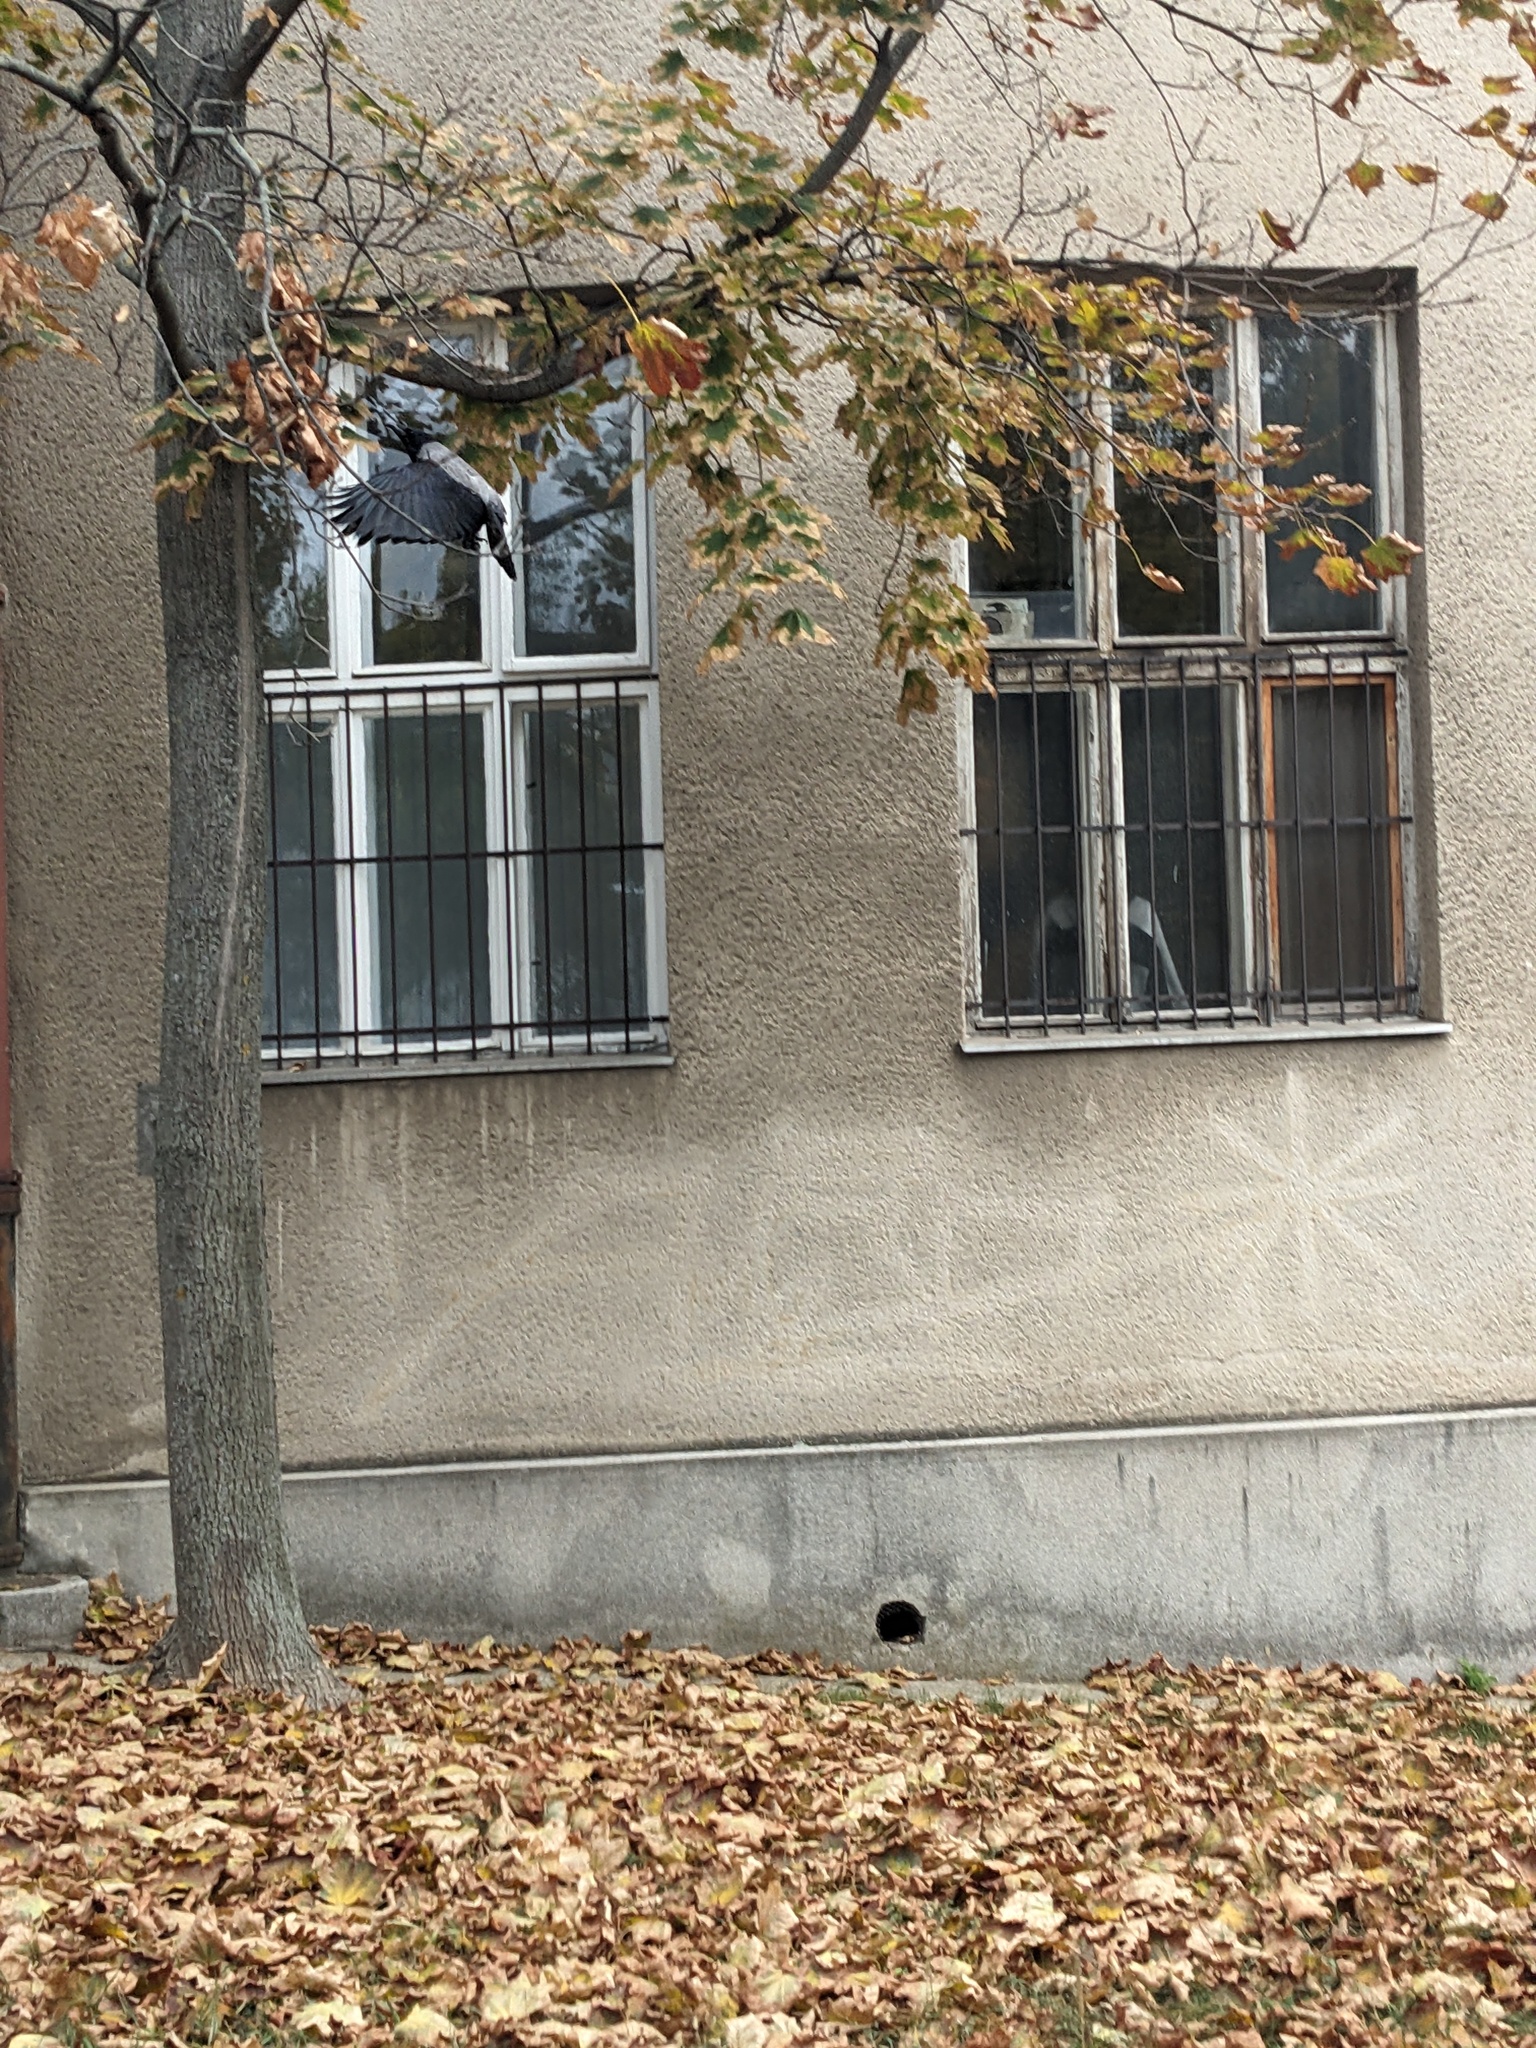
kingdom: Animalia
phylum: Chordata
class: Aves
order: Passeriformes
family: Corvidae
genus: Corvus
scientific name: Corvus cornix
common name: Hooded crow
